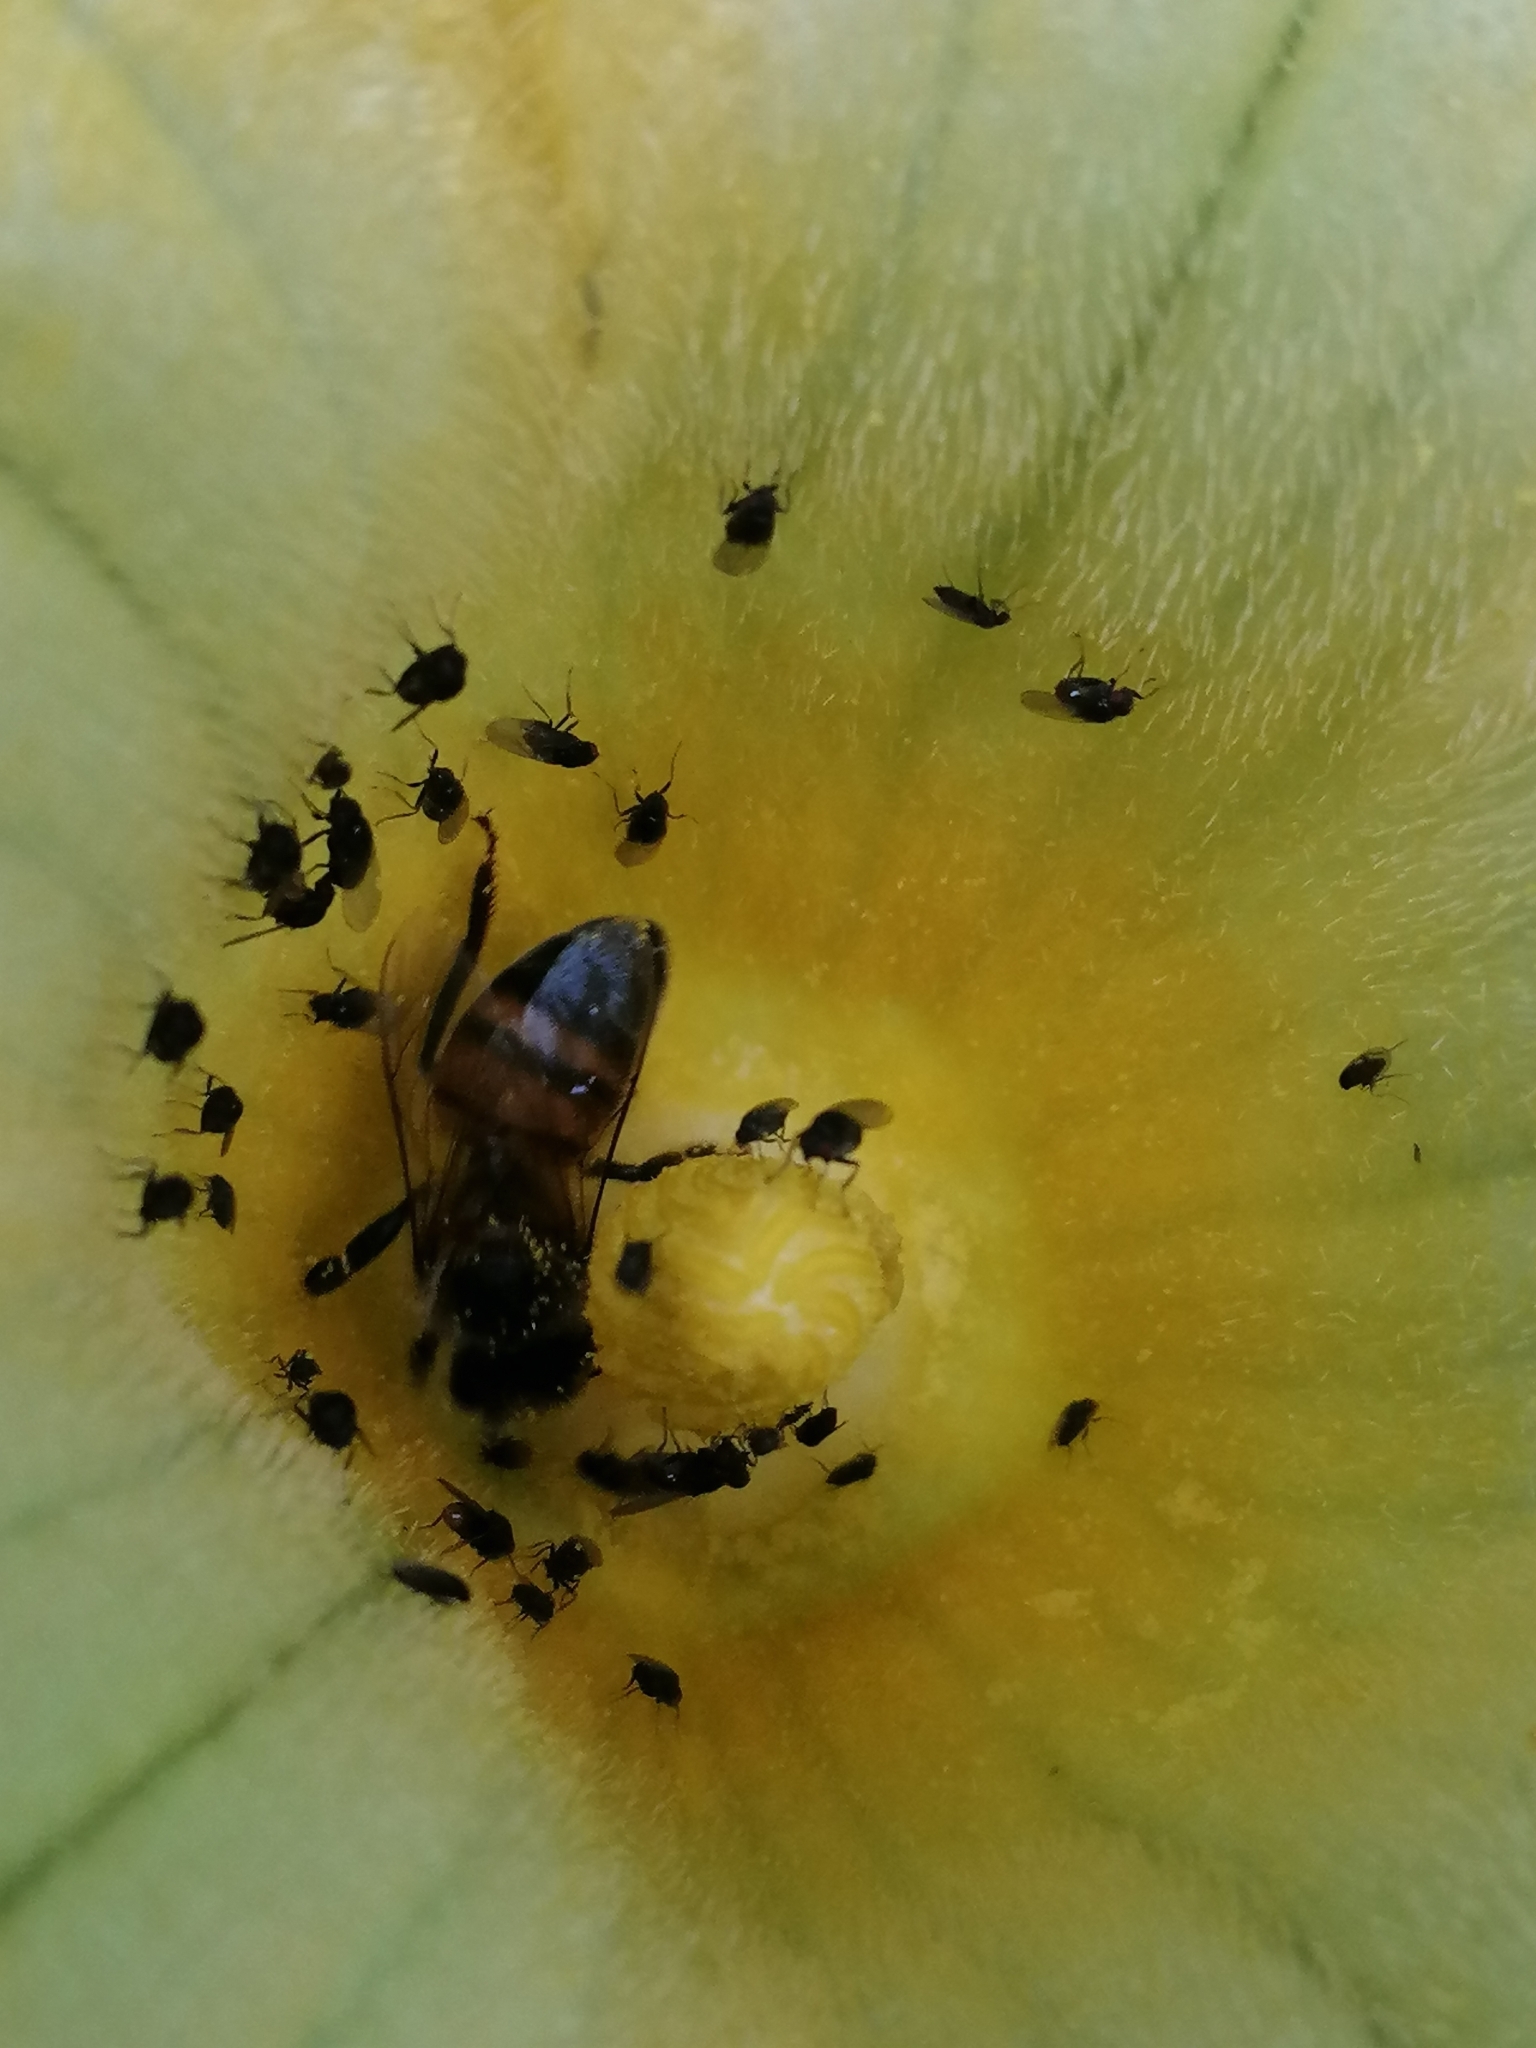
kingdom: Animalia
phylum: Arthropoda
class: Insecta
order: Hymenoptera
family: Apidae
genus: Apis
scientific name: Apis mellifera
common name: Honey bee
